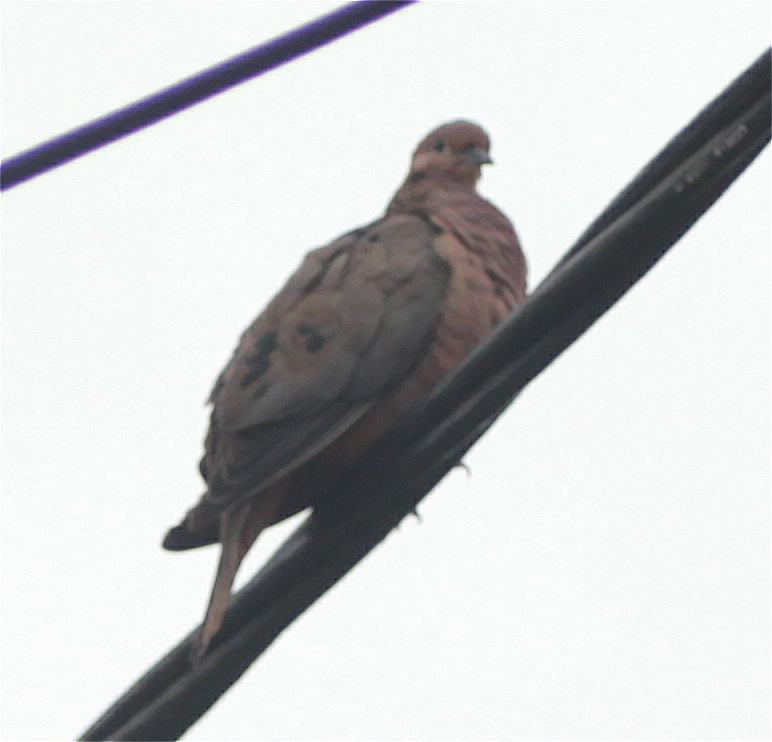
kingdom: Animalia
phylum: Chordata
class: Aves
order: Columbiformes
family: Columbidae
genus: Zenaida
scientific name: Zenaida auriculata
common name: Eared dove
